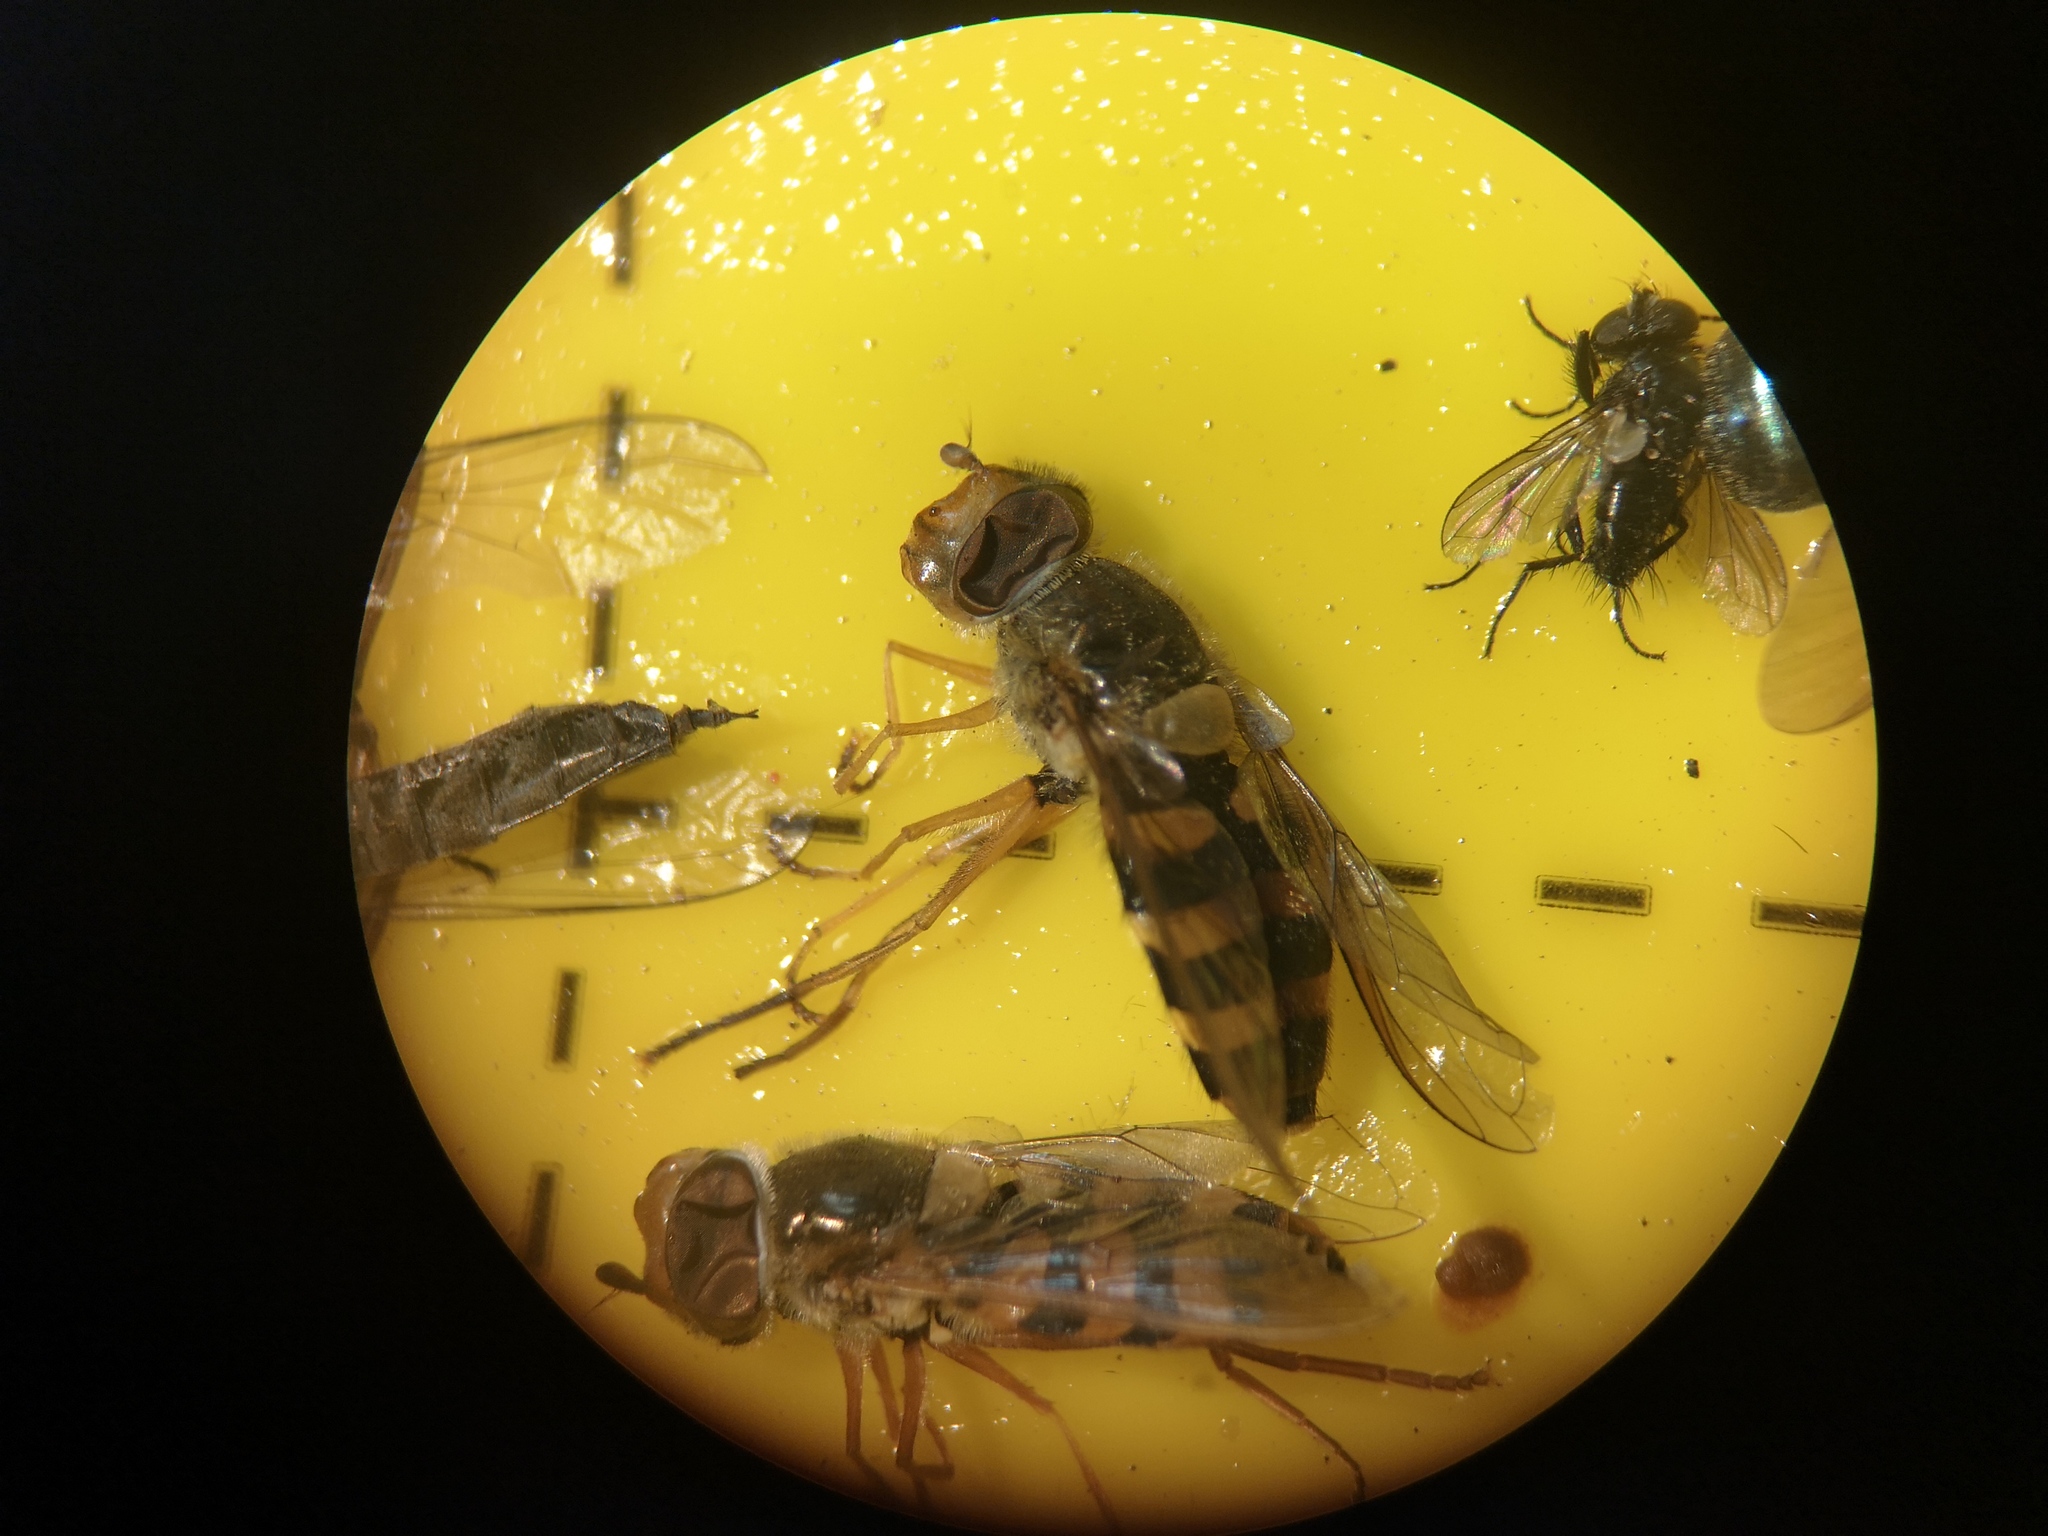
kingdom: Animalia
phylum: Arthropoda
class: Insecta
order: Diptera
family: Syrphidae
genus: Syrphus
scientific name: Syrphus ribesii
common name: Common flower fly
